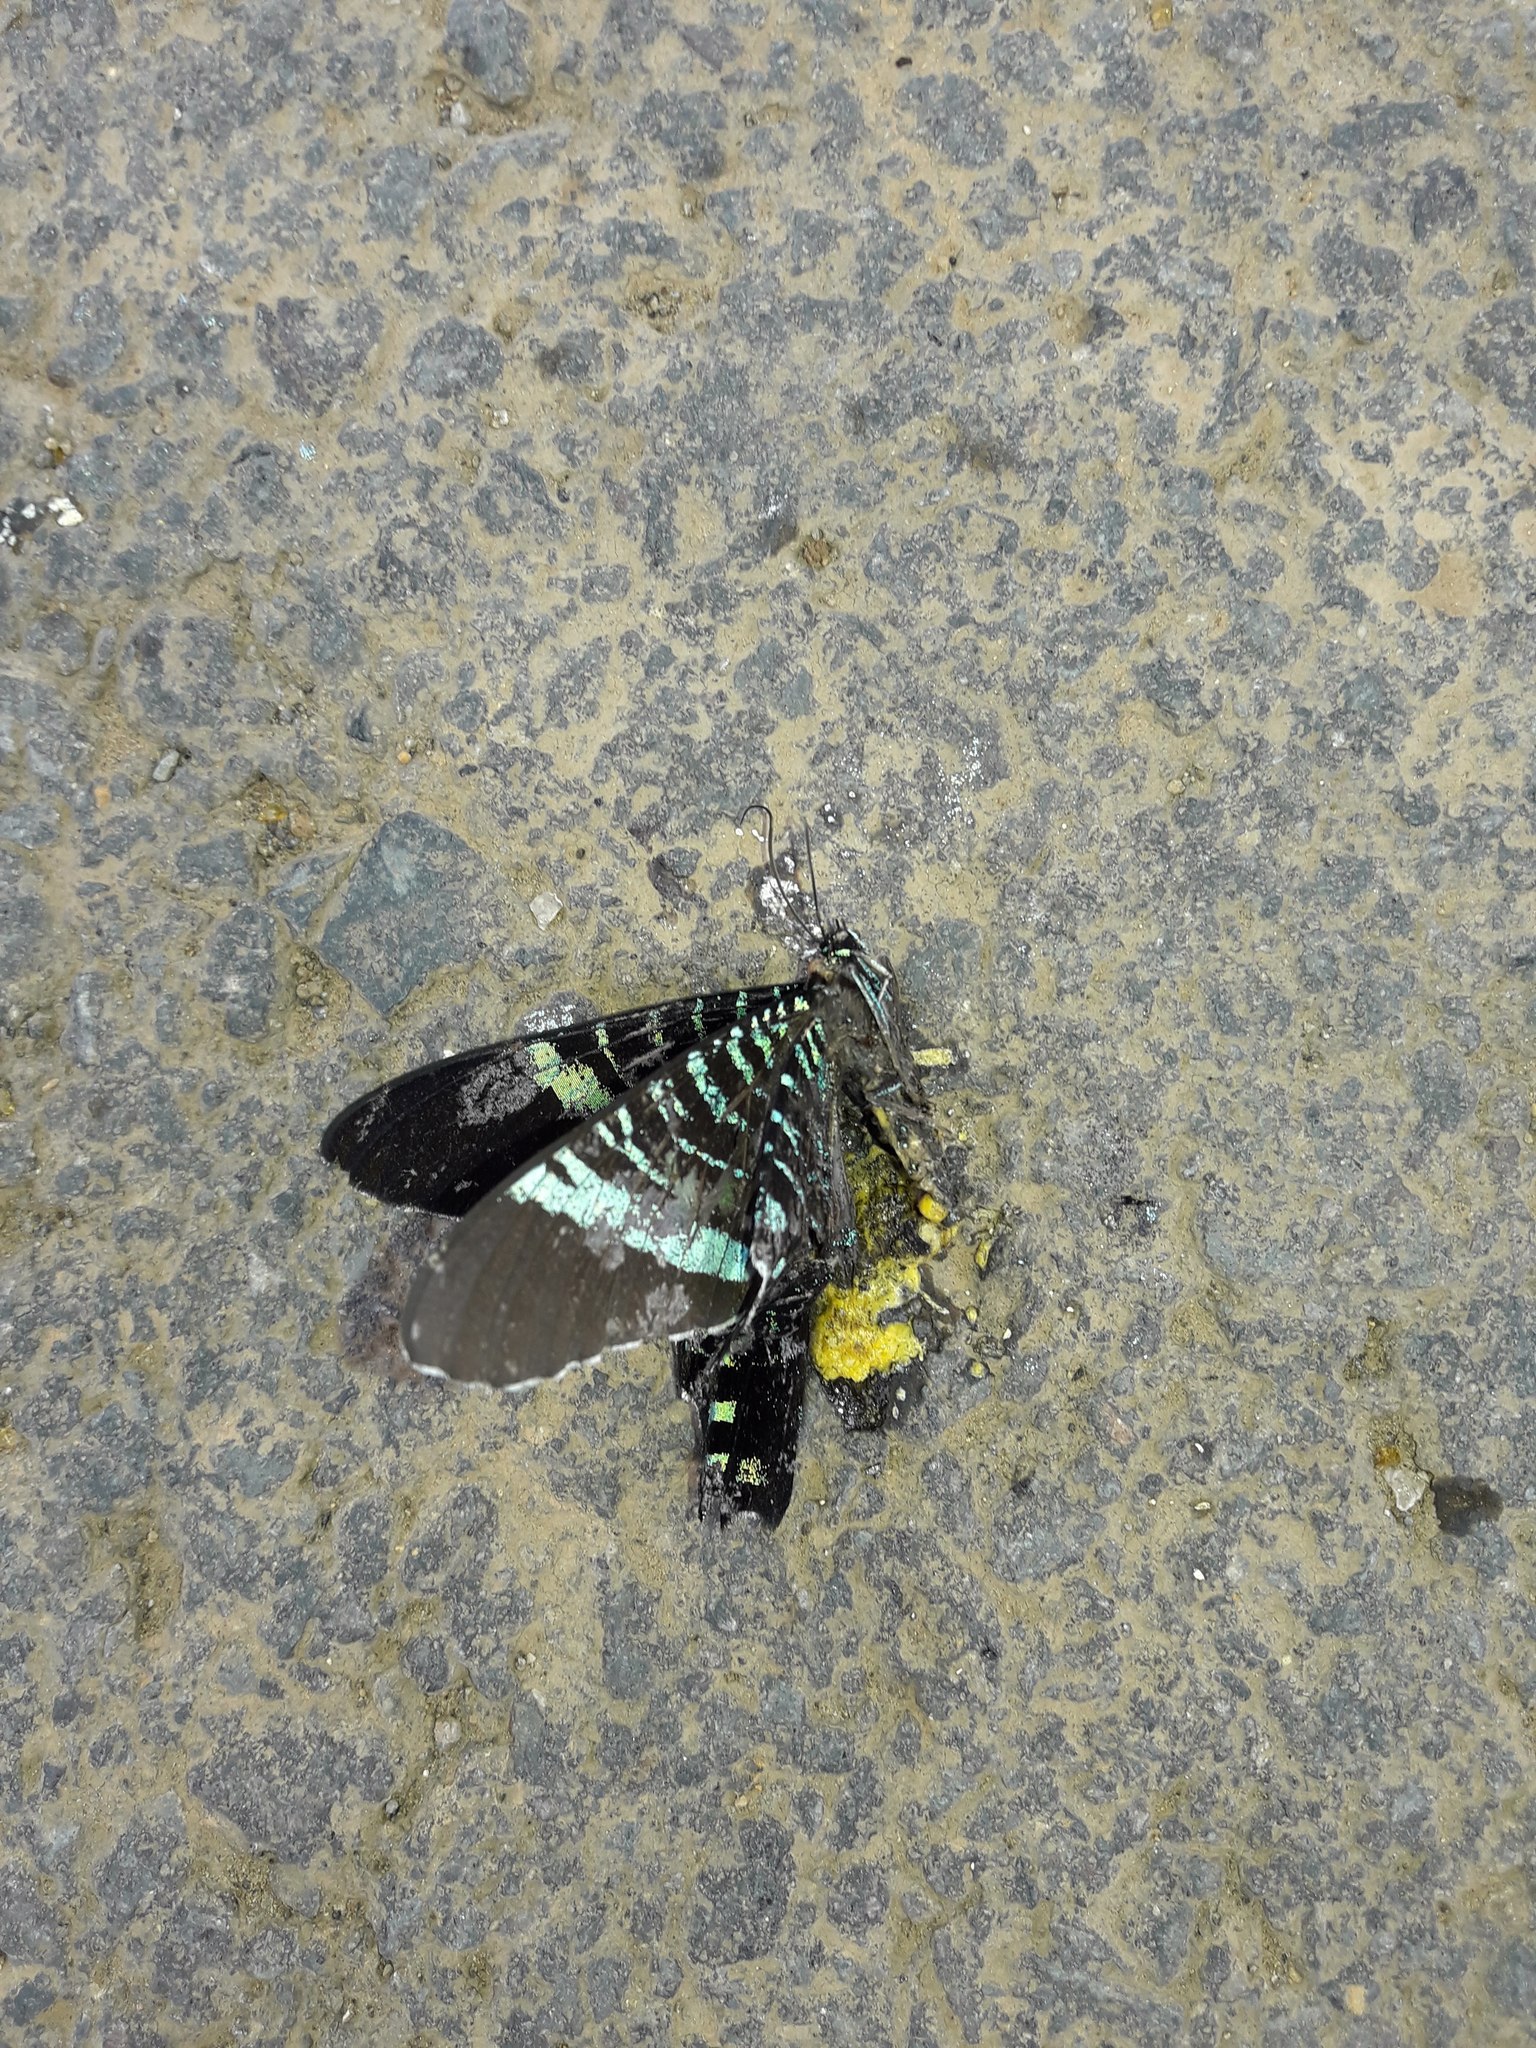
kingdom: Animalia
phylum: Arthropoda
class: Insecta
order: Lepidoptera
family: Uraniidae
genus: Urania
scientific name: Urania fulgens
